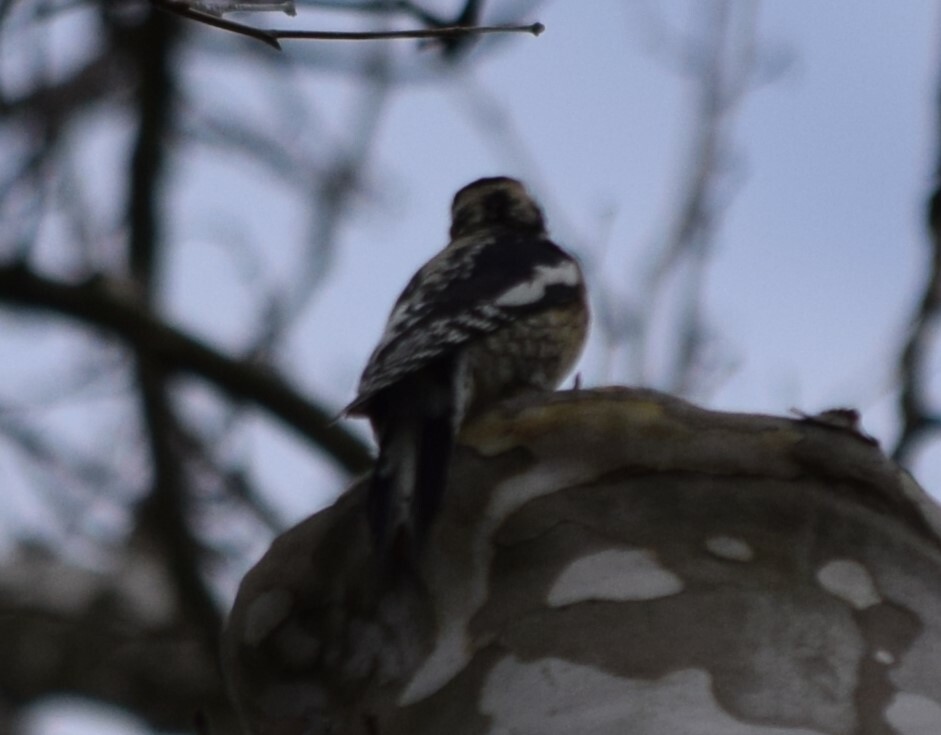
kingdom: Animalia
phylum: Chordata
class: Aves
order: Piciformes
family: Picidae
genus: Sphyrapicus
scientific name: Sphyrapicus varius
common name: Yellow-bellied sapsucker
